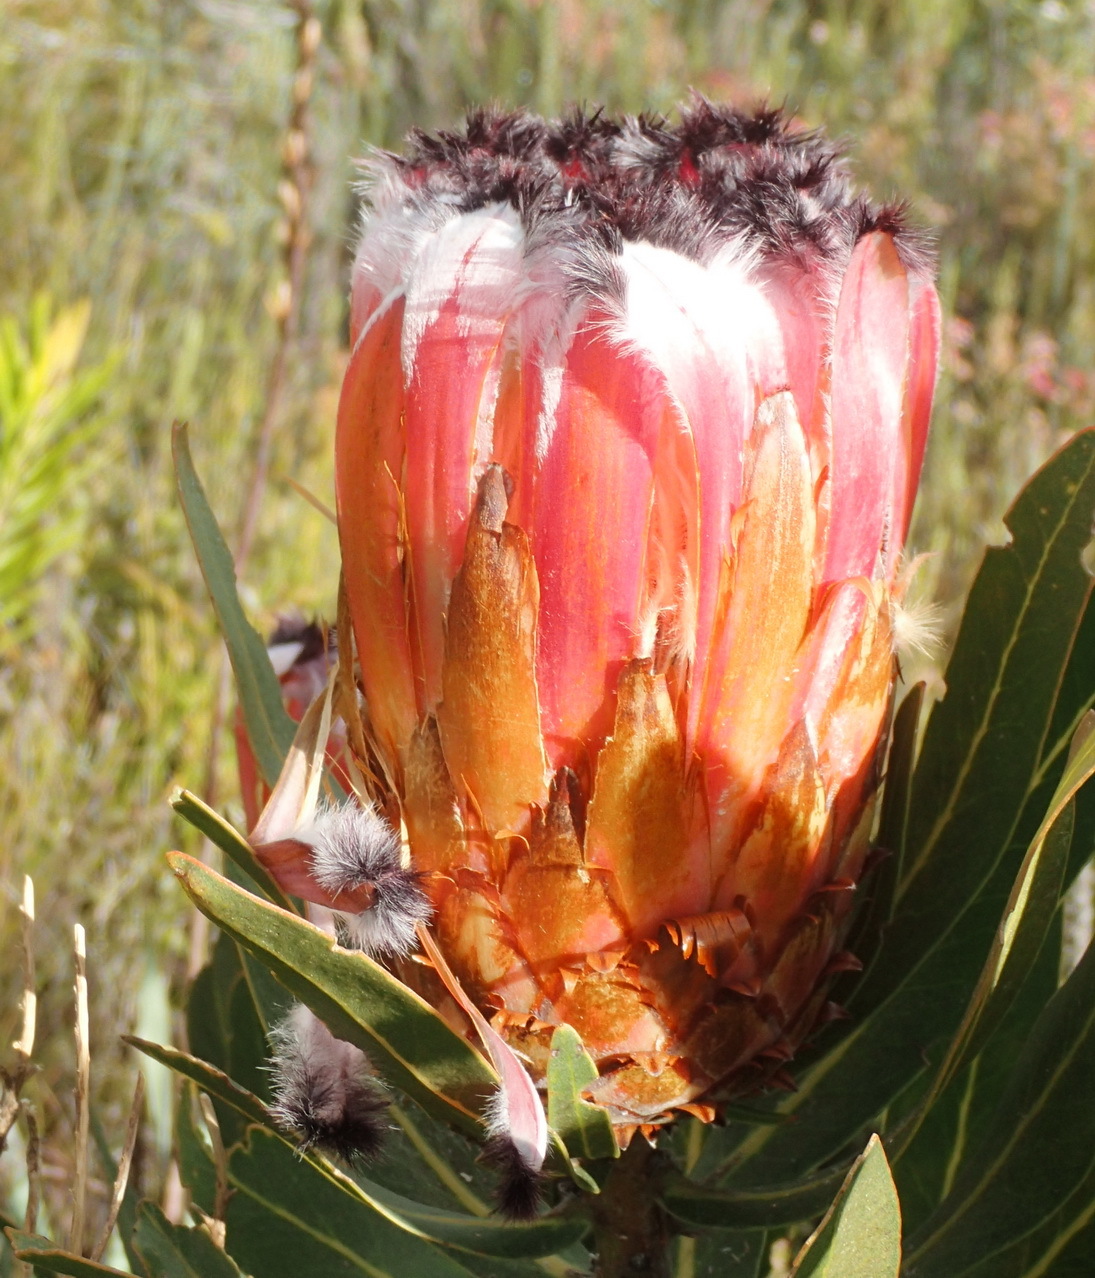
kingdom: Plantae
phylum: Tracheophyta
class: Magnoliopsida
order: Proteales
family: Proteaceae
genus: Protea
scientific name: Protea neriifolia
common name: Blue sugarbush
